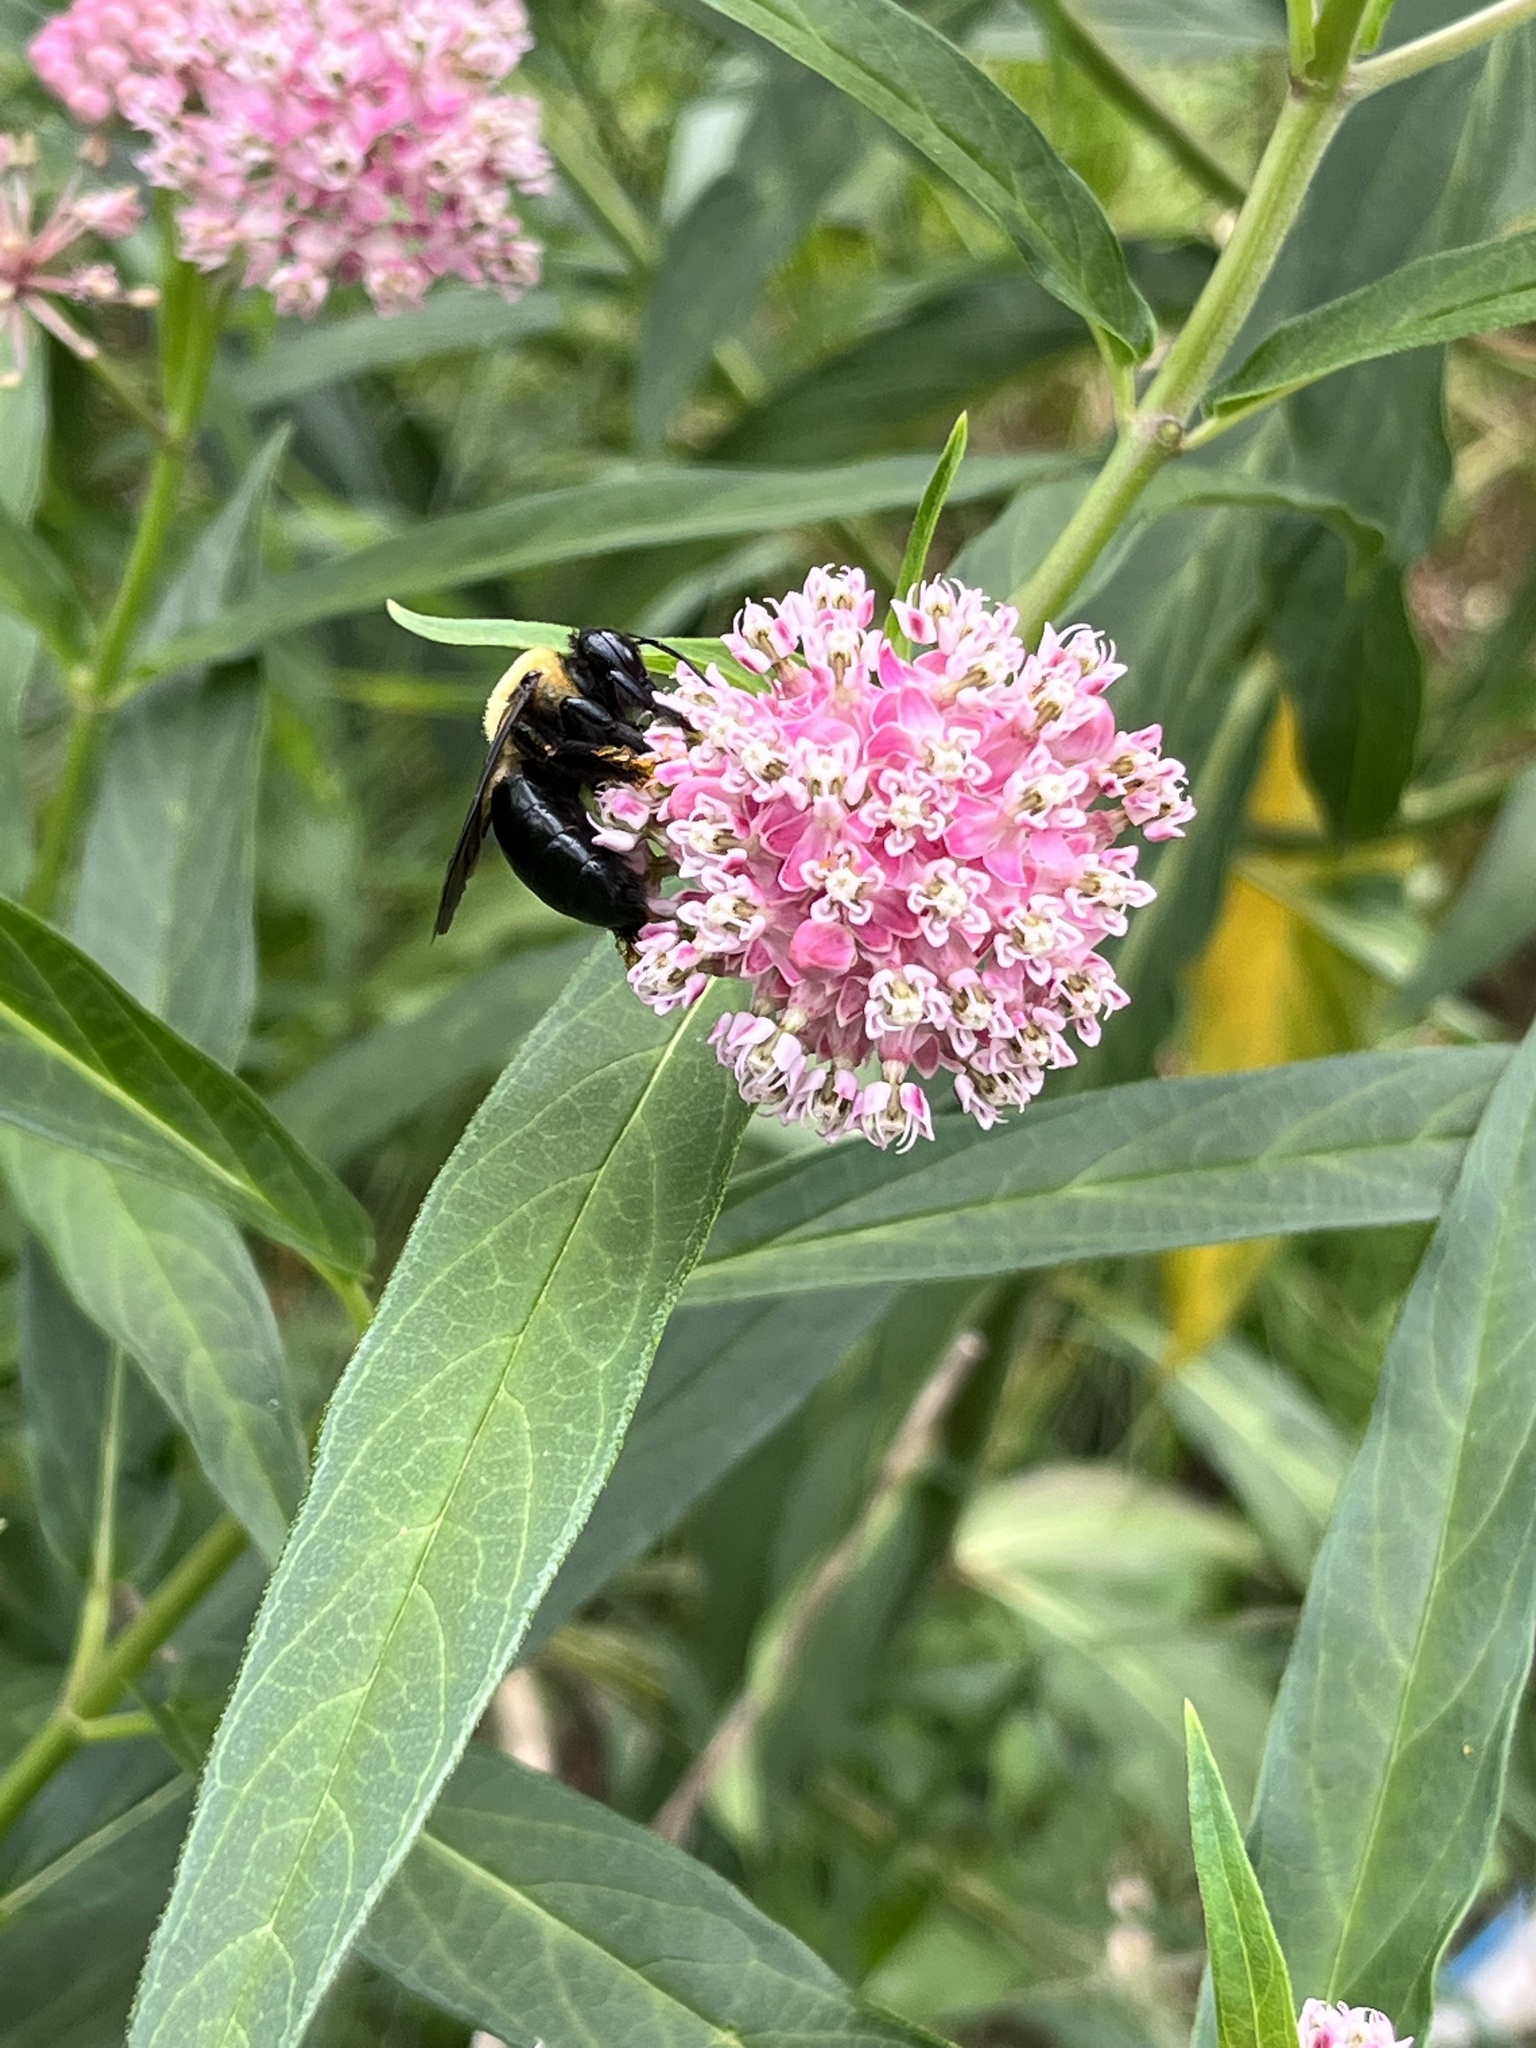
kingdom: Animalia
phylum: Arthropoda
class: Insecta
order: Hymenoptera
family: Apidae
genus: Xylocopa
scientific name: Xylocopa virginica
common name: Carpenter bee
